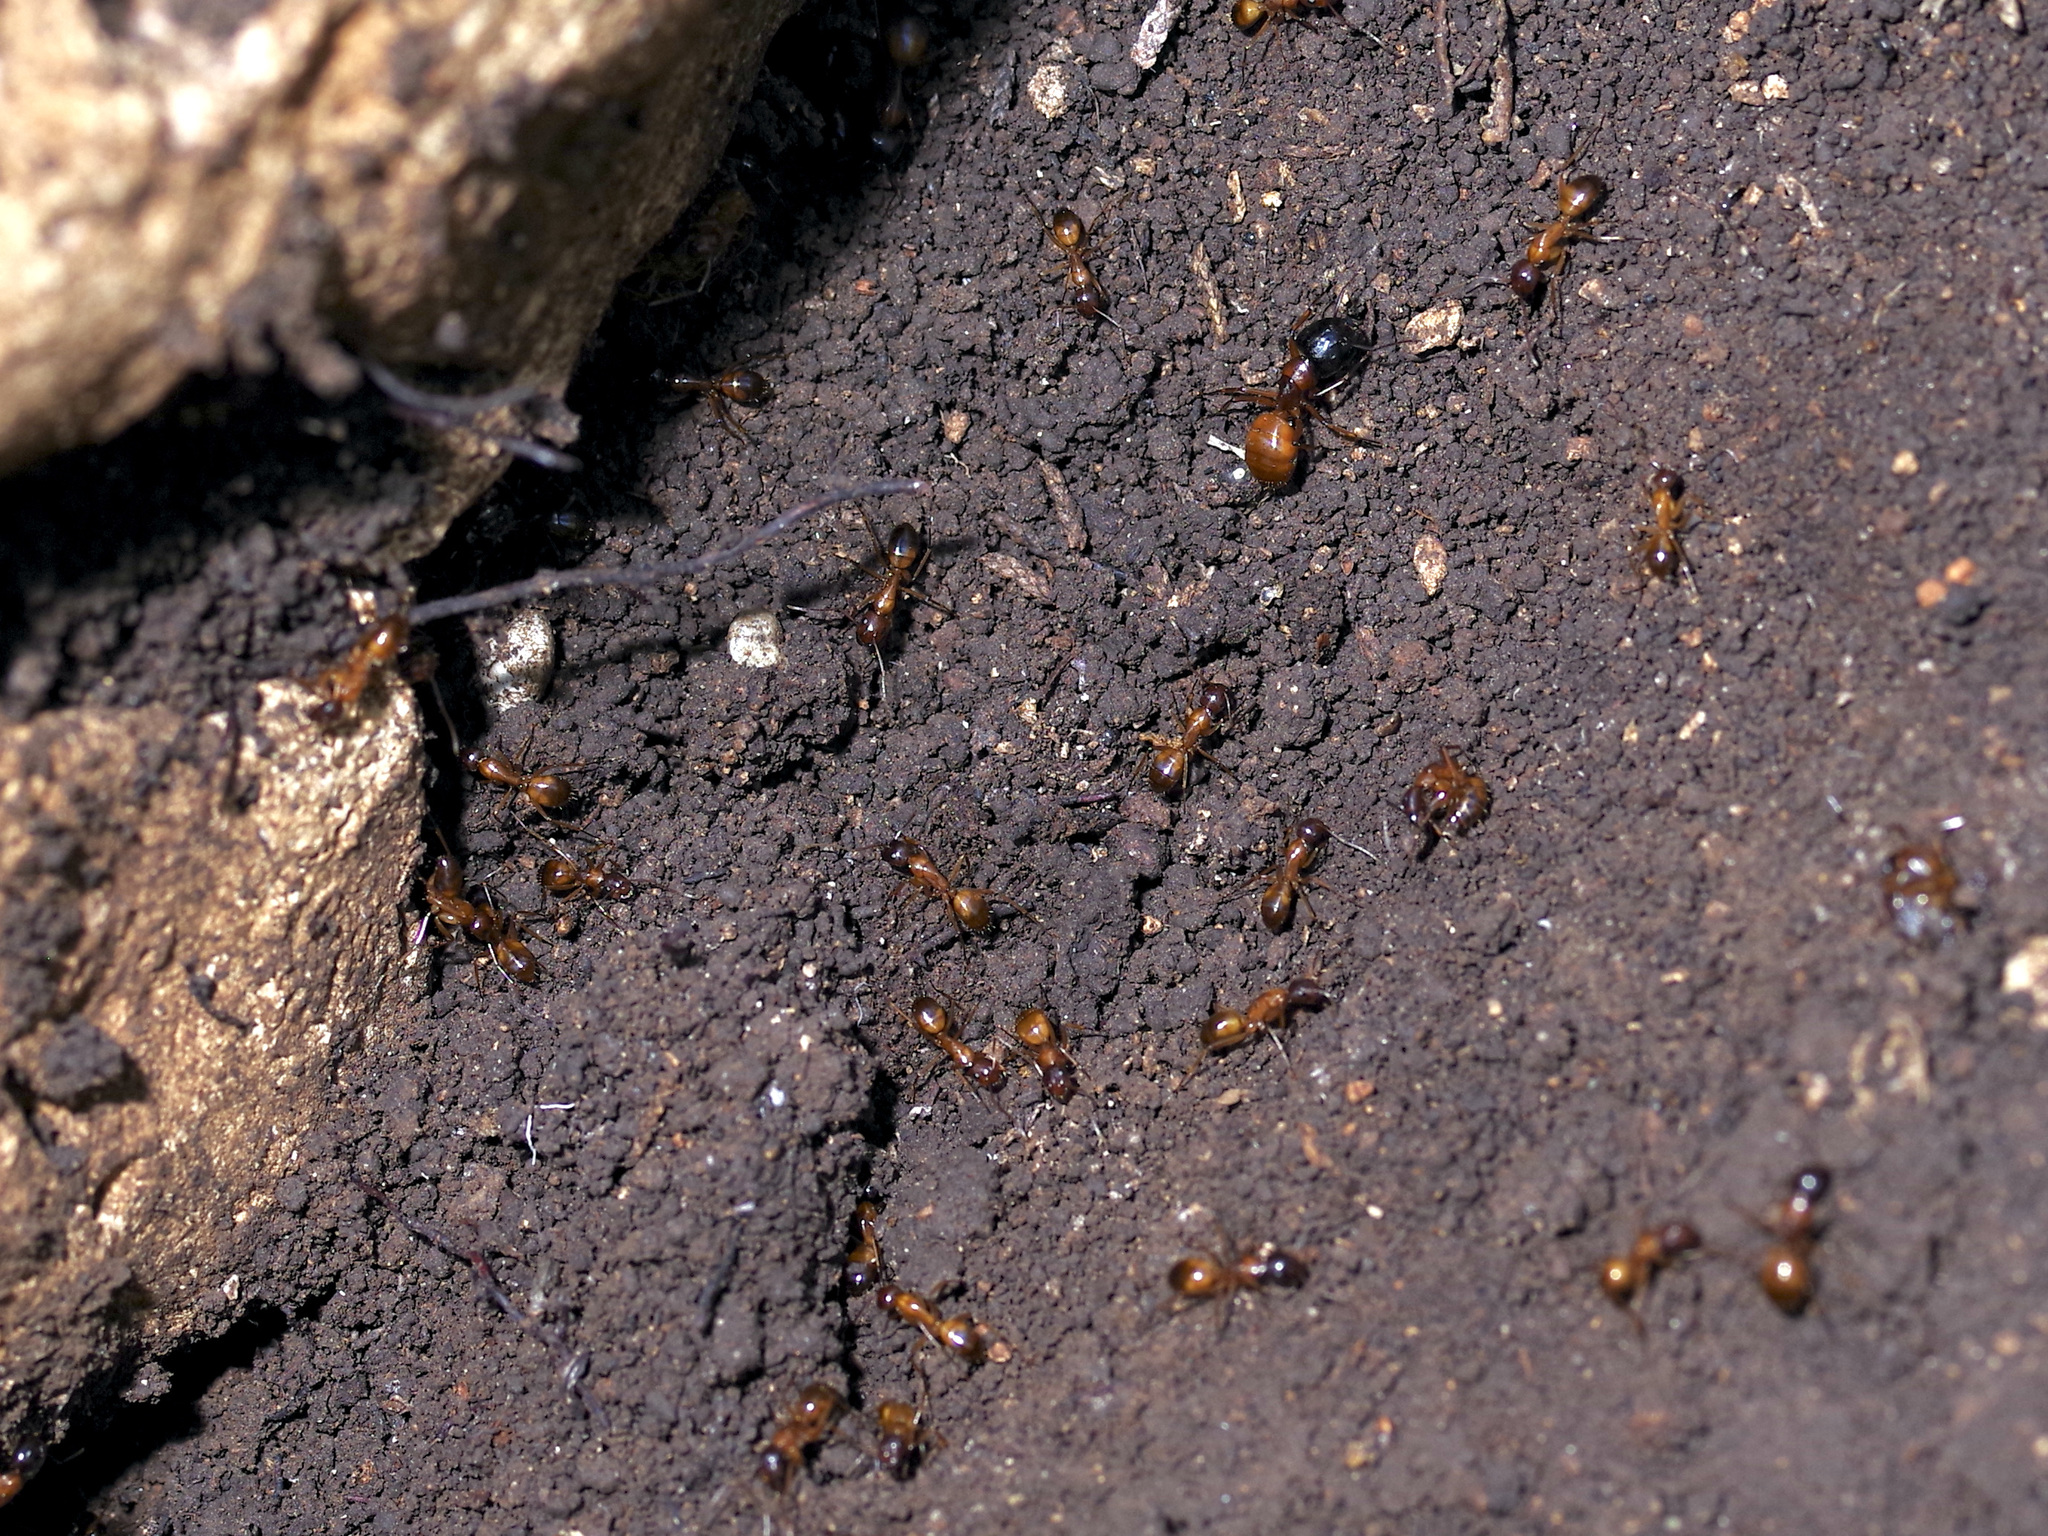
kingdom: Animalia
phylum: Arthropoda
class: Insecta
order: Hymenoptera
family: Formicidae
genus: Camponotus
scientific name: Camponotus sansabeanus
